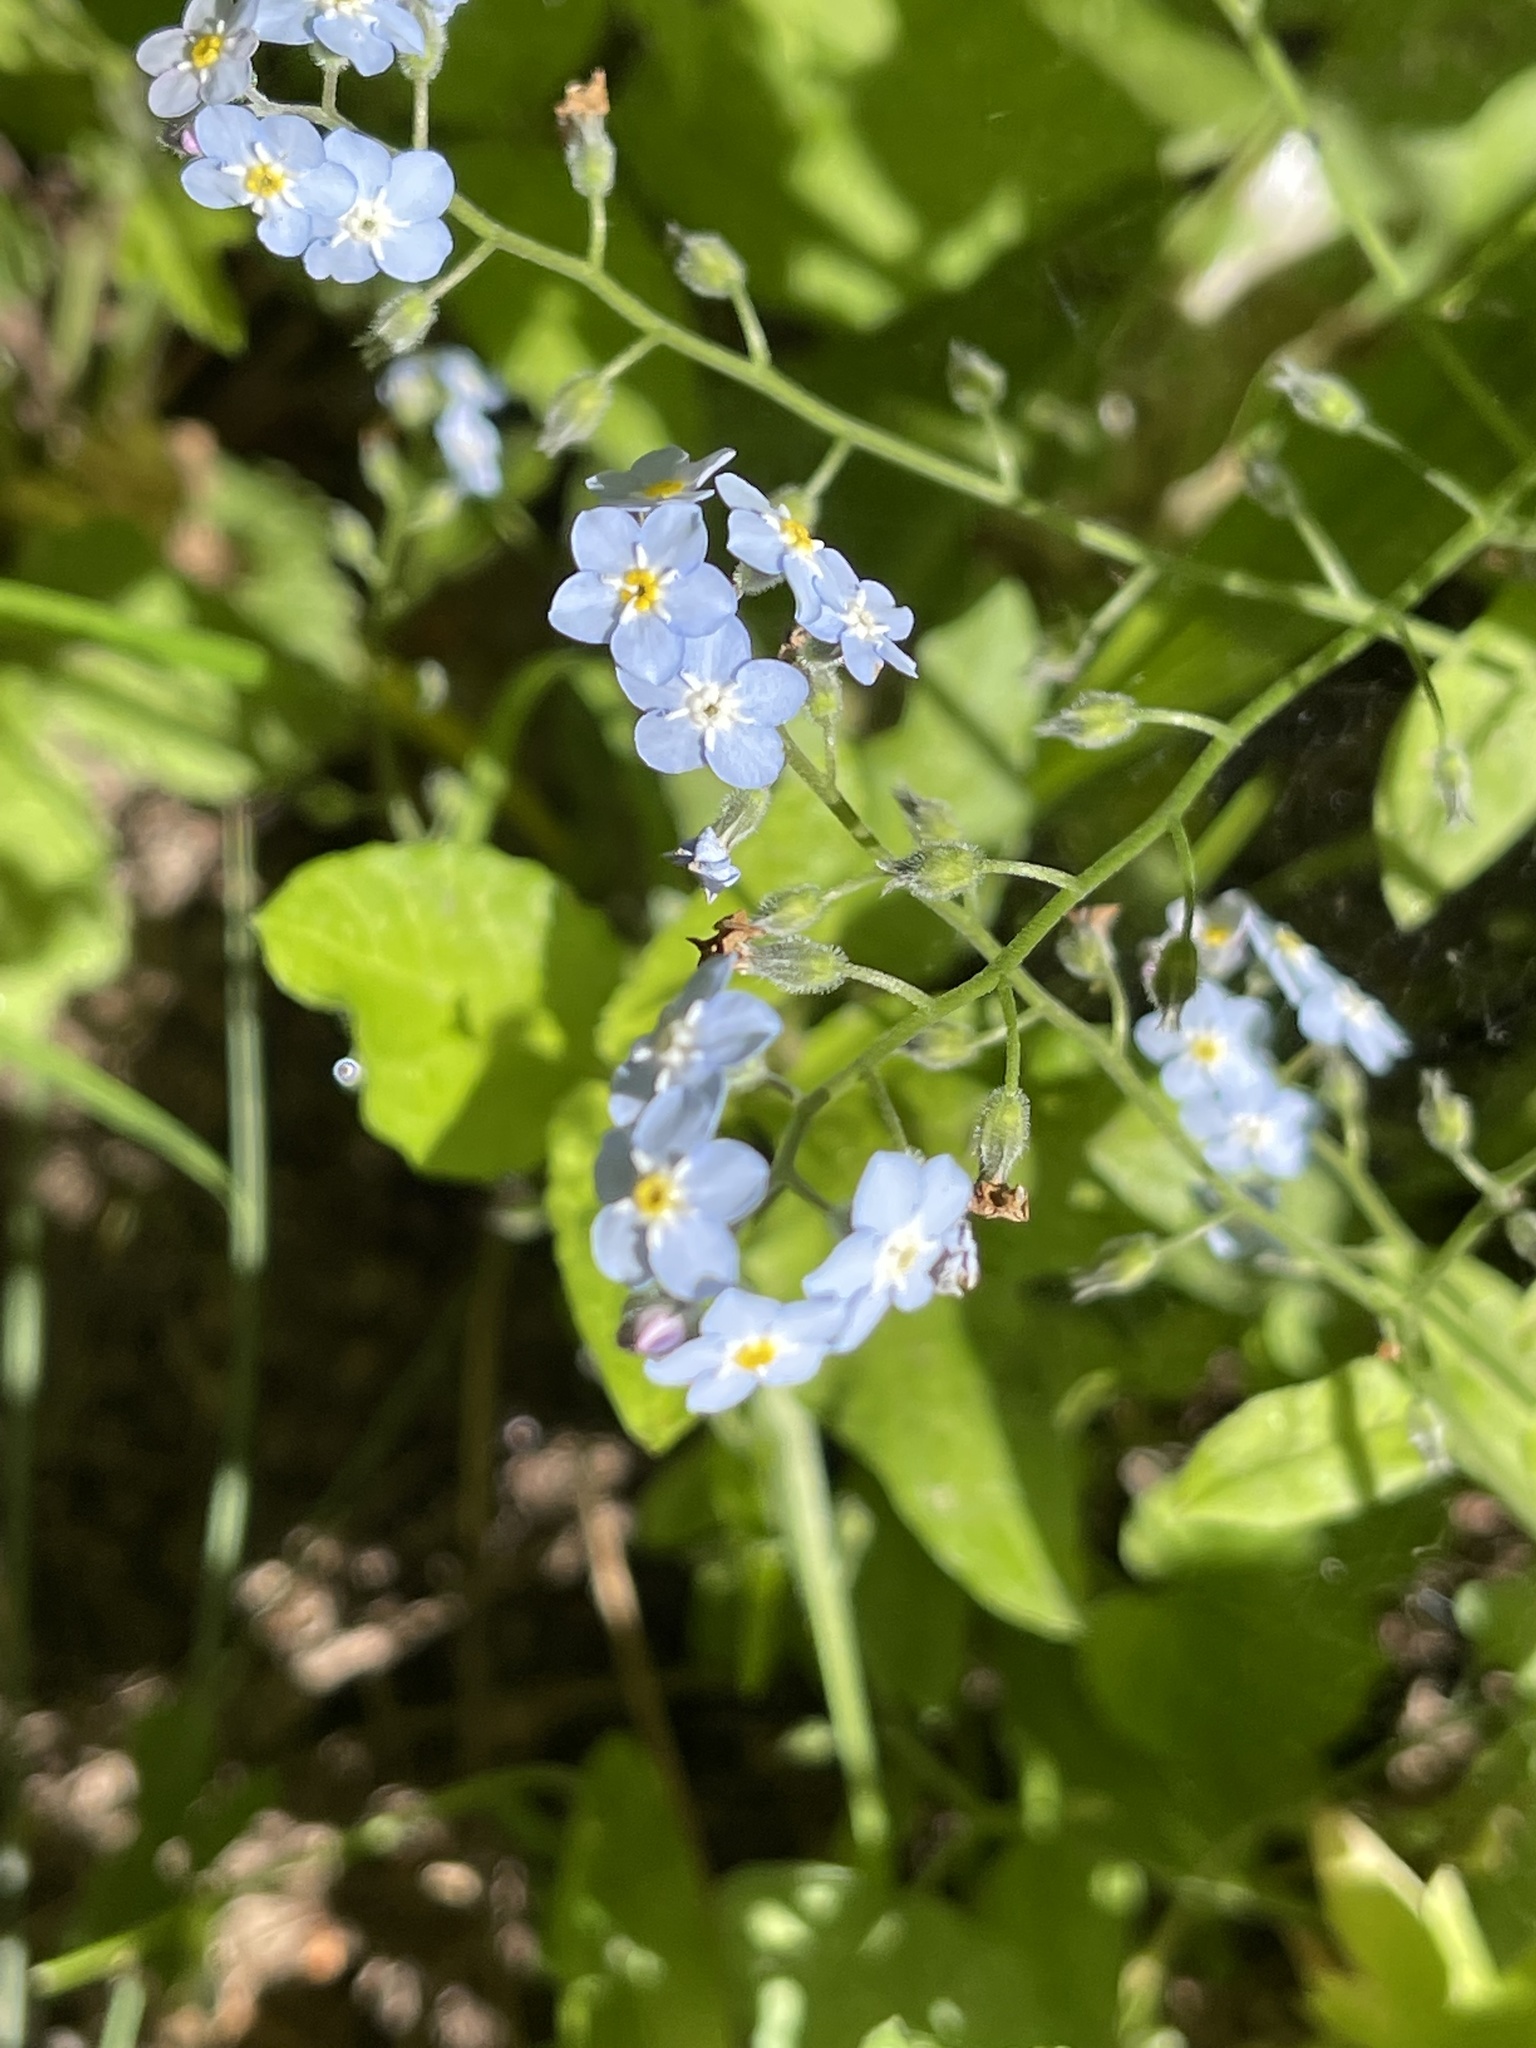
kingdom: Plantae
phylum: Tracheophyta
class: Magnoliopsida
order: Boraginales
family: Boraginaceae
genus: Myosotis
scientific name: Myosotis latifolia
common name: Broadleaf forget-me-not
